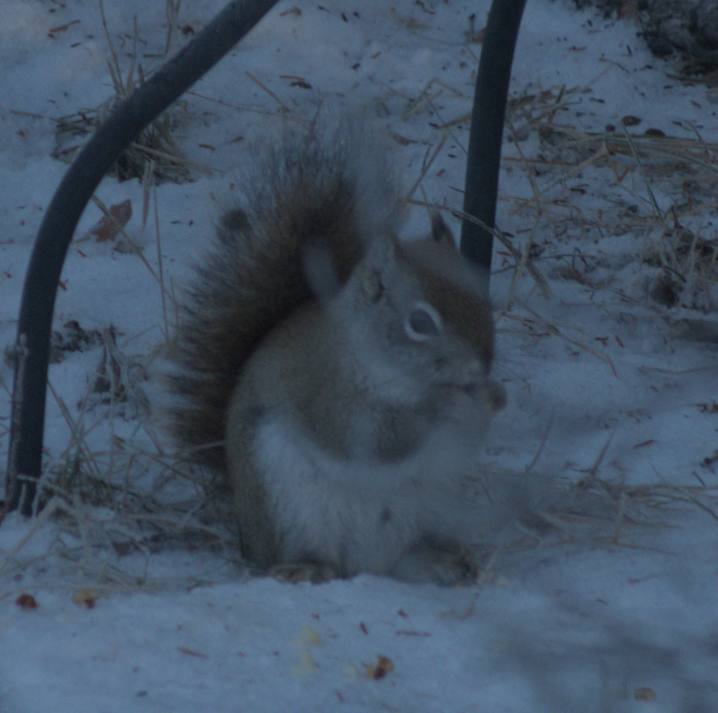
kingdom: Animalia
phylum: Chordata
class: Mammalia
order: Rodentia
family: Sciuridae
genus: Tamiasciurus
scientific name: Tamiasciurus hudsonicus
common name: Red squirrel
